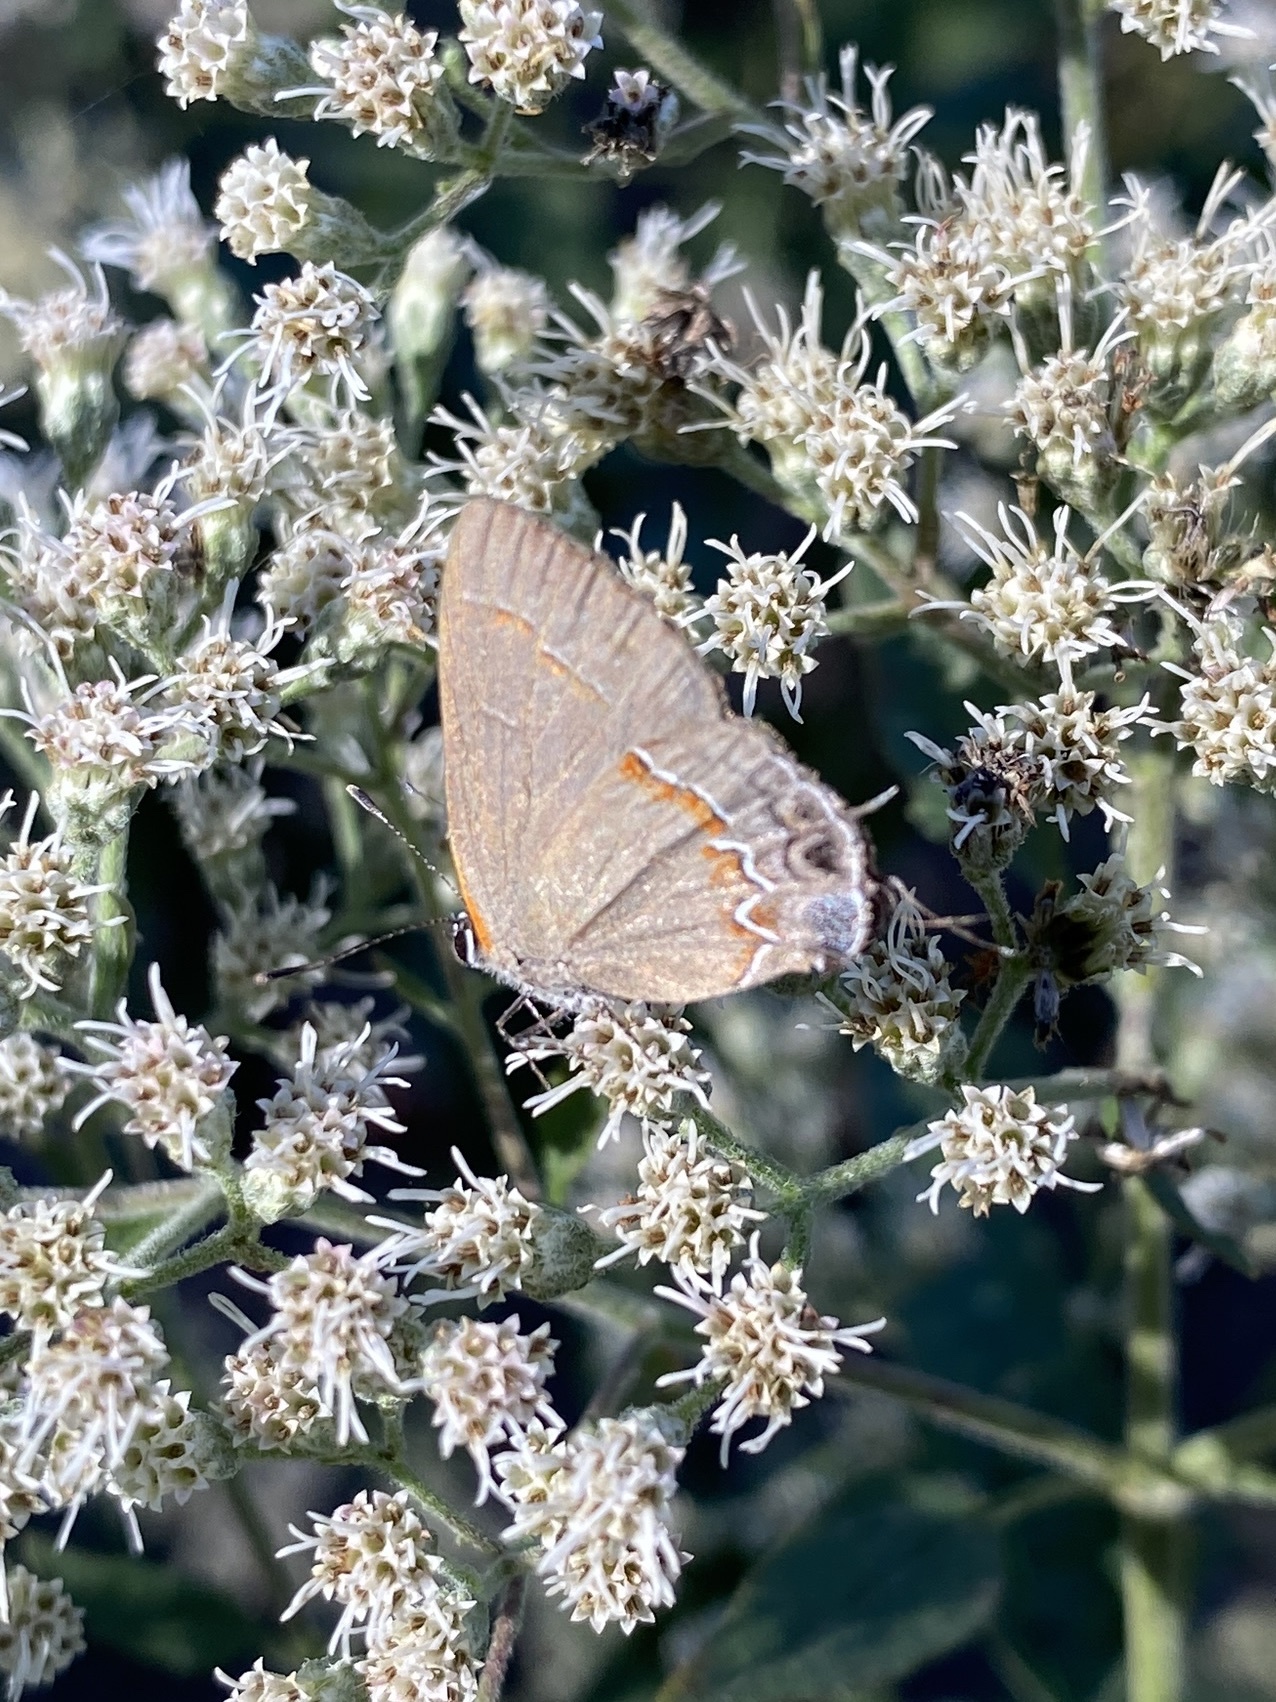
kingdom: Animalia
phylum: Arthropoda
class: Insecta
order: Lepidoptera
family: Lycaenidae
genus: Calycopis
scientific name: Calycopis cecrops
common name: Red-banded hairstreak
